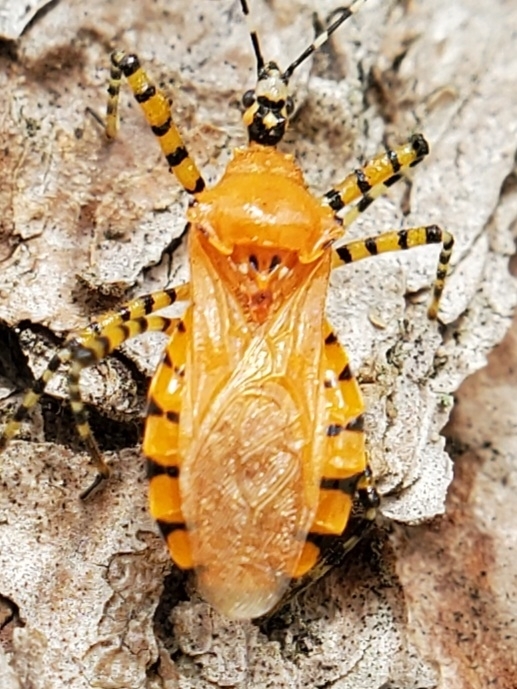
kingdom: Animalia
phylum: Arthropoda
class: Insecta
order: Hemiptera
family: Reduviidae
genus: Pselliopus
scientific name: Pselliopus barberi
